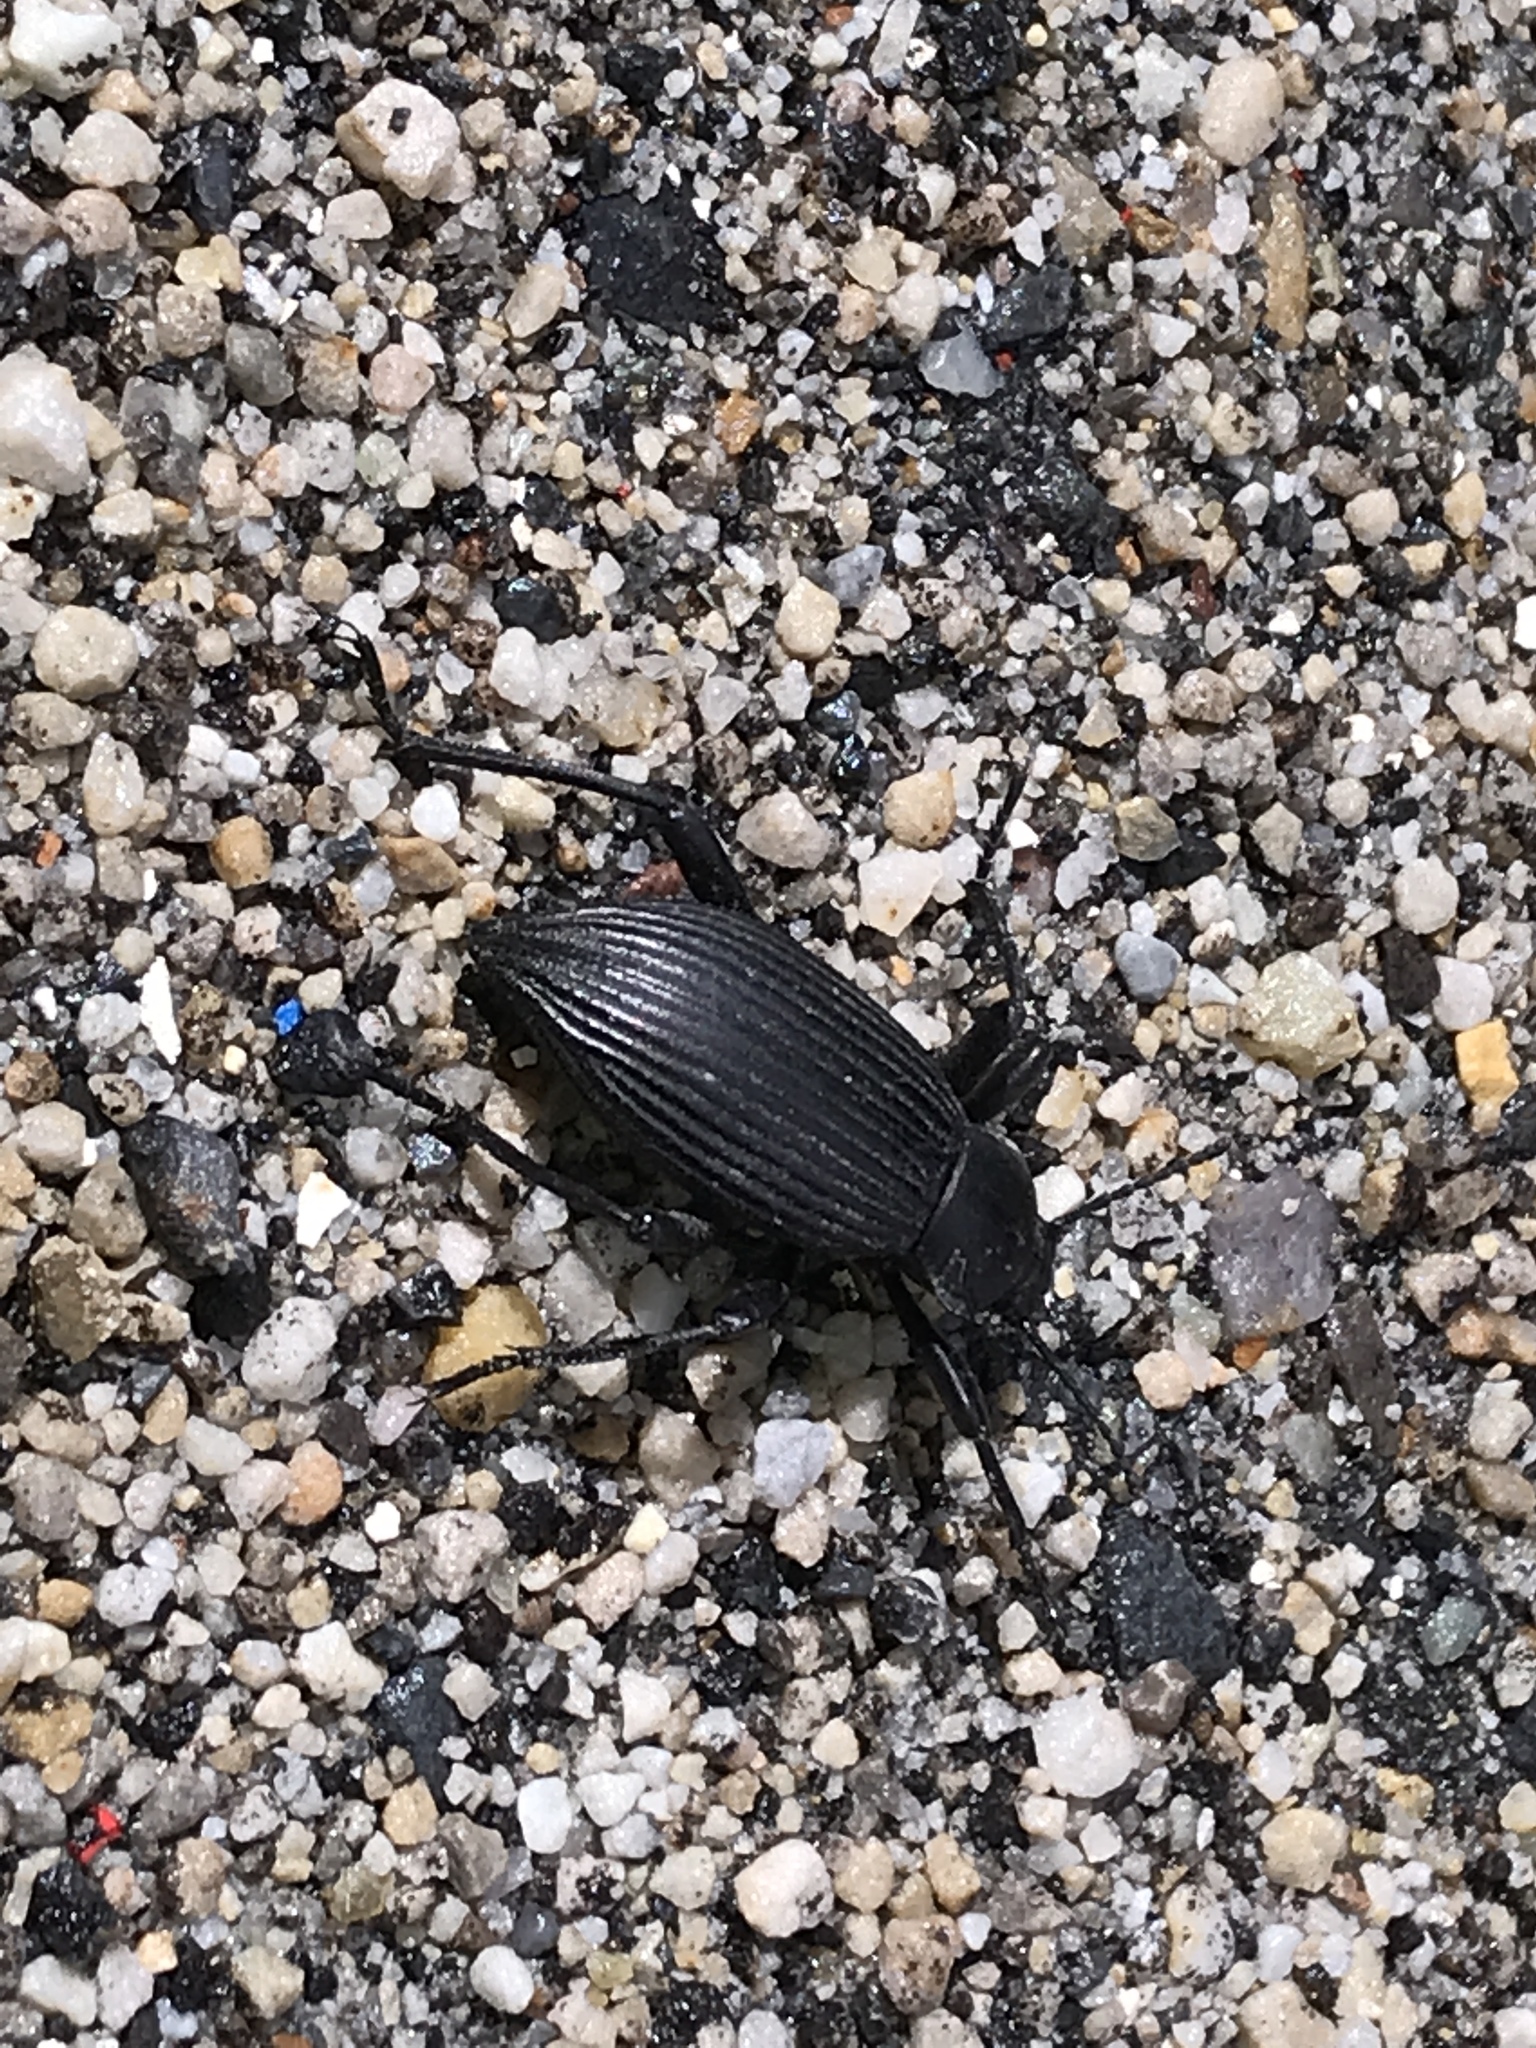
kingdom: Animalia
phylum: Arthropoda
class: Insecta
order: Coleoptera
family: Tenebrionidae
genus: Eleodes
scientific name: Eleodes hispilabris
